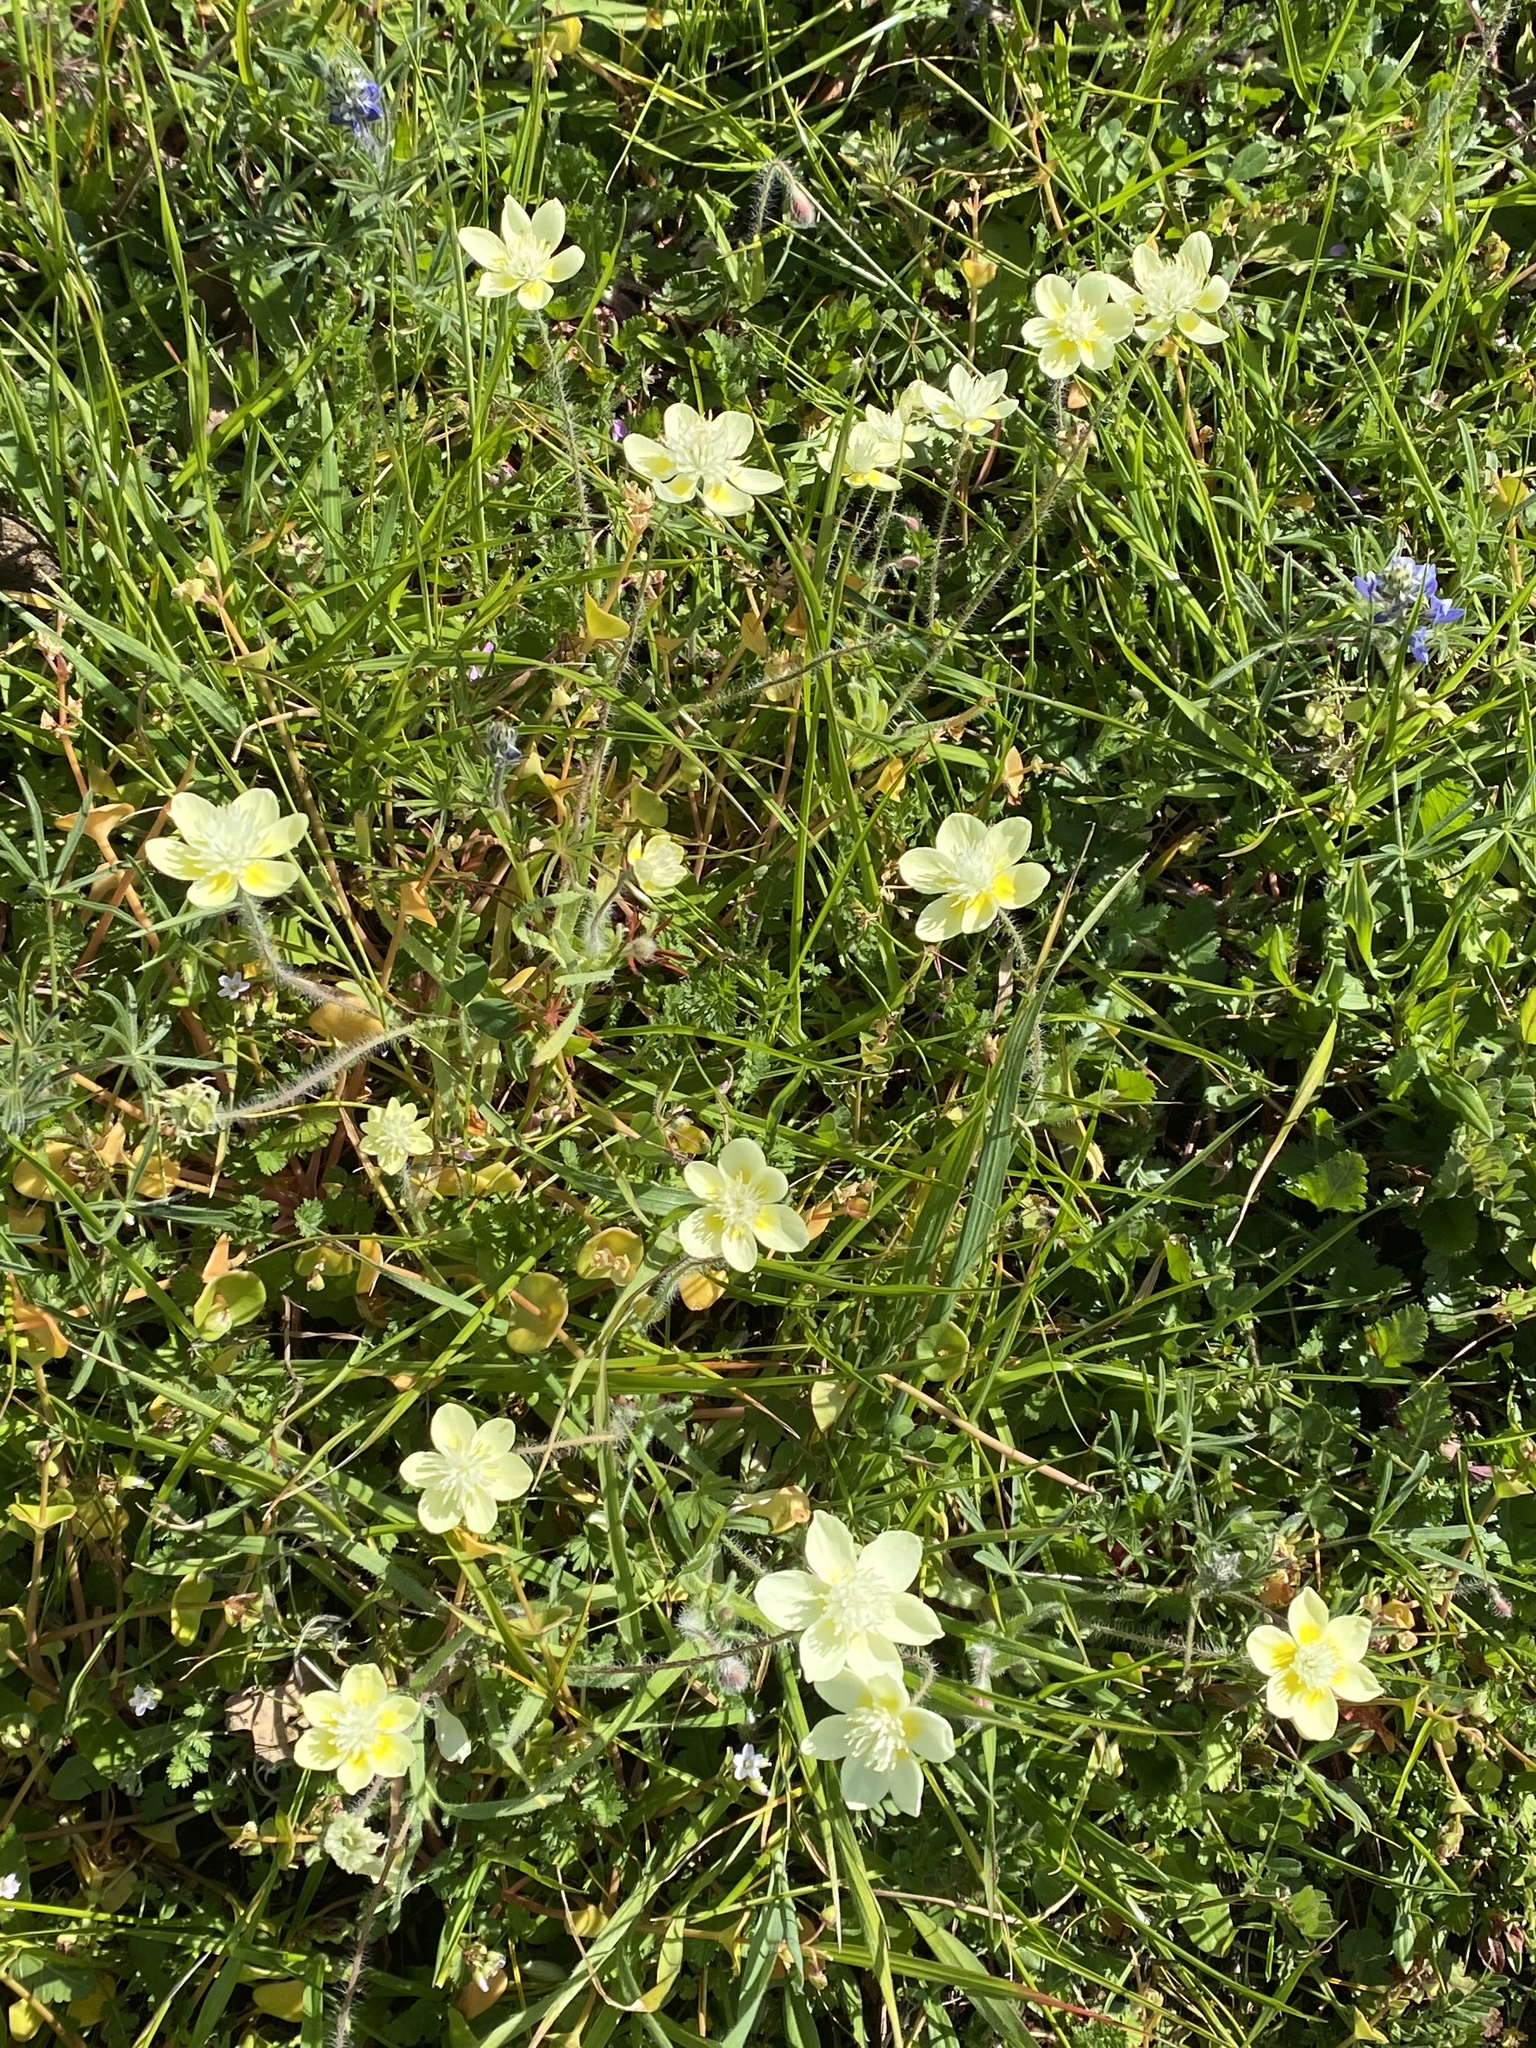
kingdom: Plantae
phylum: Tracheophyta
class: Magnoliopsida
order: Ranunculales
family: Papaveraceae
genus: Platystemon
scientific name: Platystemon californicus
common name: Cream-cups
